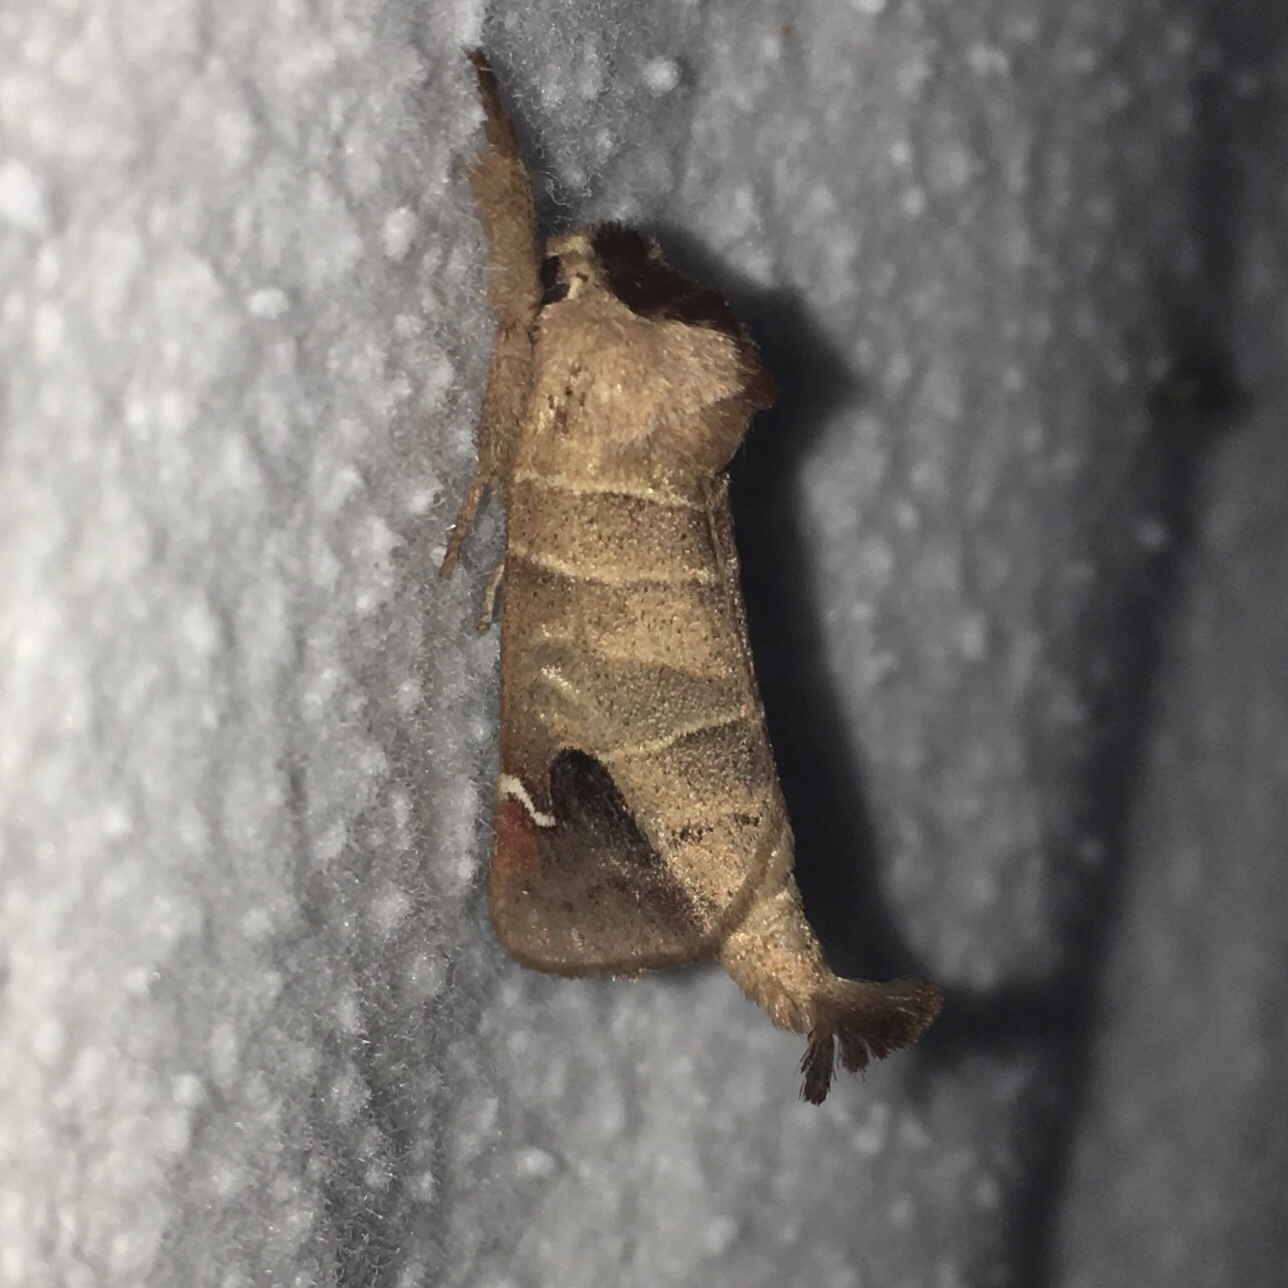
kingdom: Animalia
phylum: Arthropoda
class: Insecta
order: Lepidoptera
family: Notodontidae
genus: Clostera
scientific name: Clostera albosigma
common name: Sigmoid prominent
